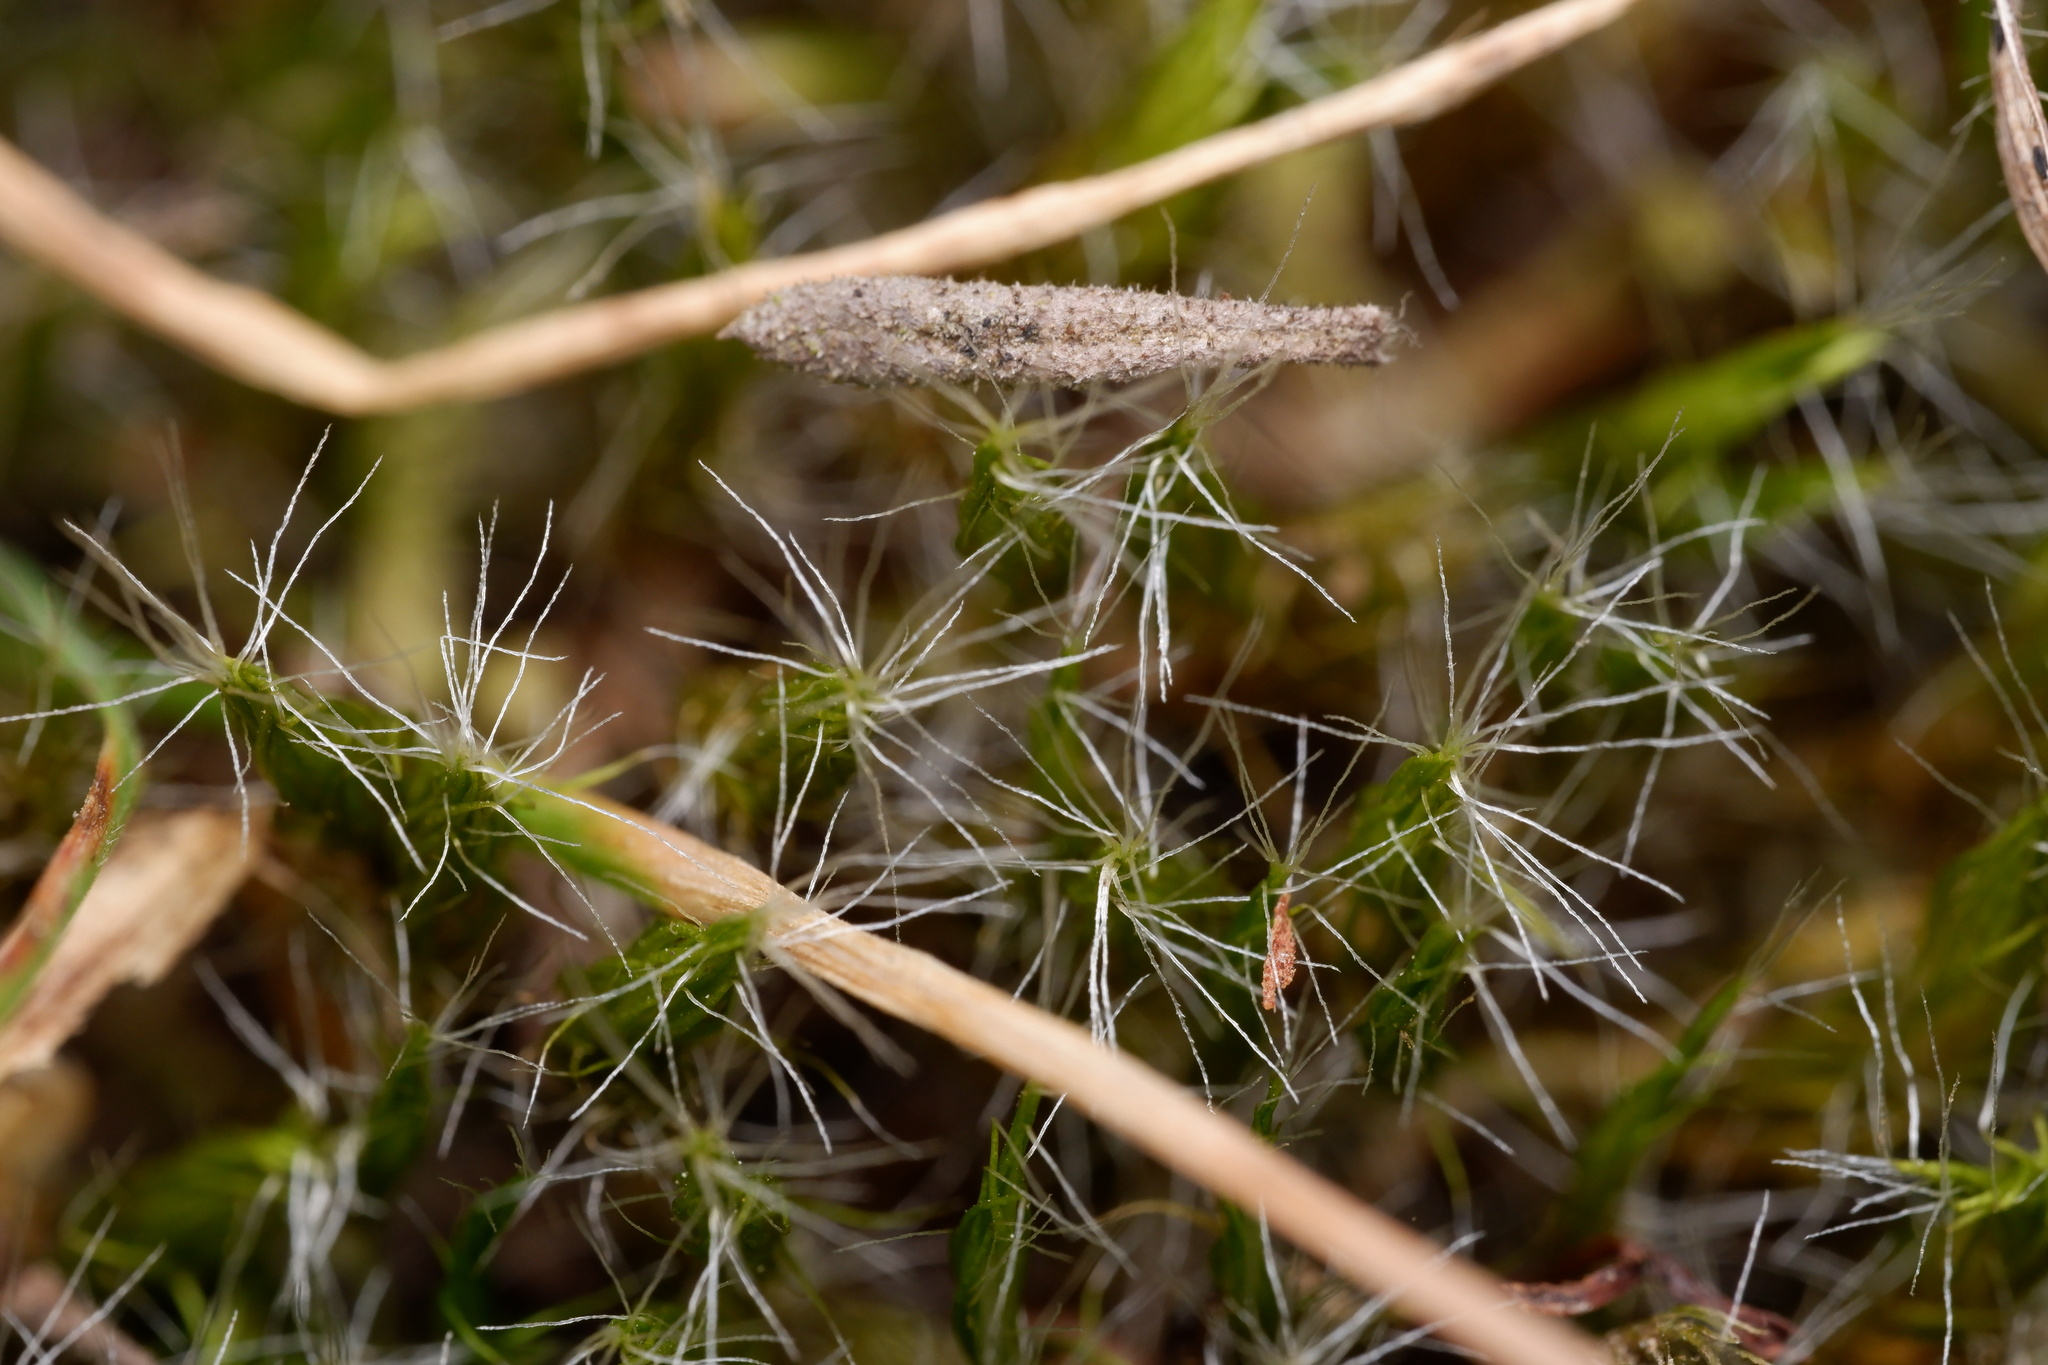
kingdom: Plantae
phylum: Bryophyta
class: Bryopsida
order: Dicranales
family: Leucobryaceae
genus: Campylopus
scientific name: Campylopus introflexus
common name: Heath star moss
